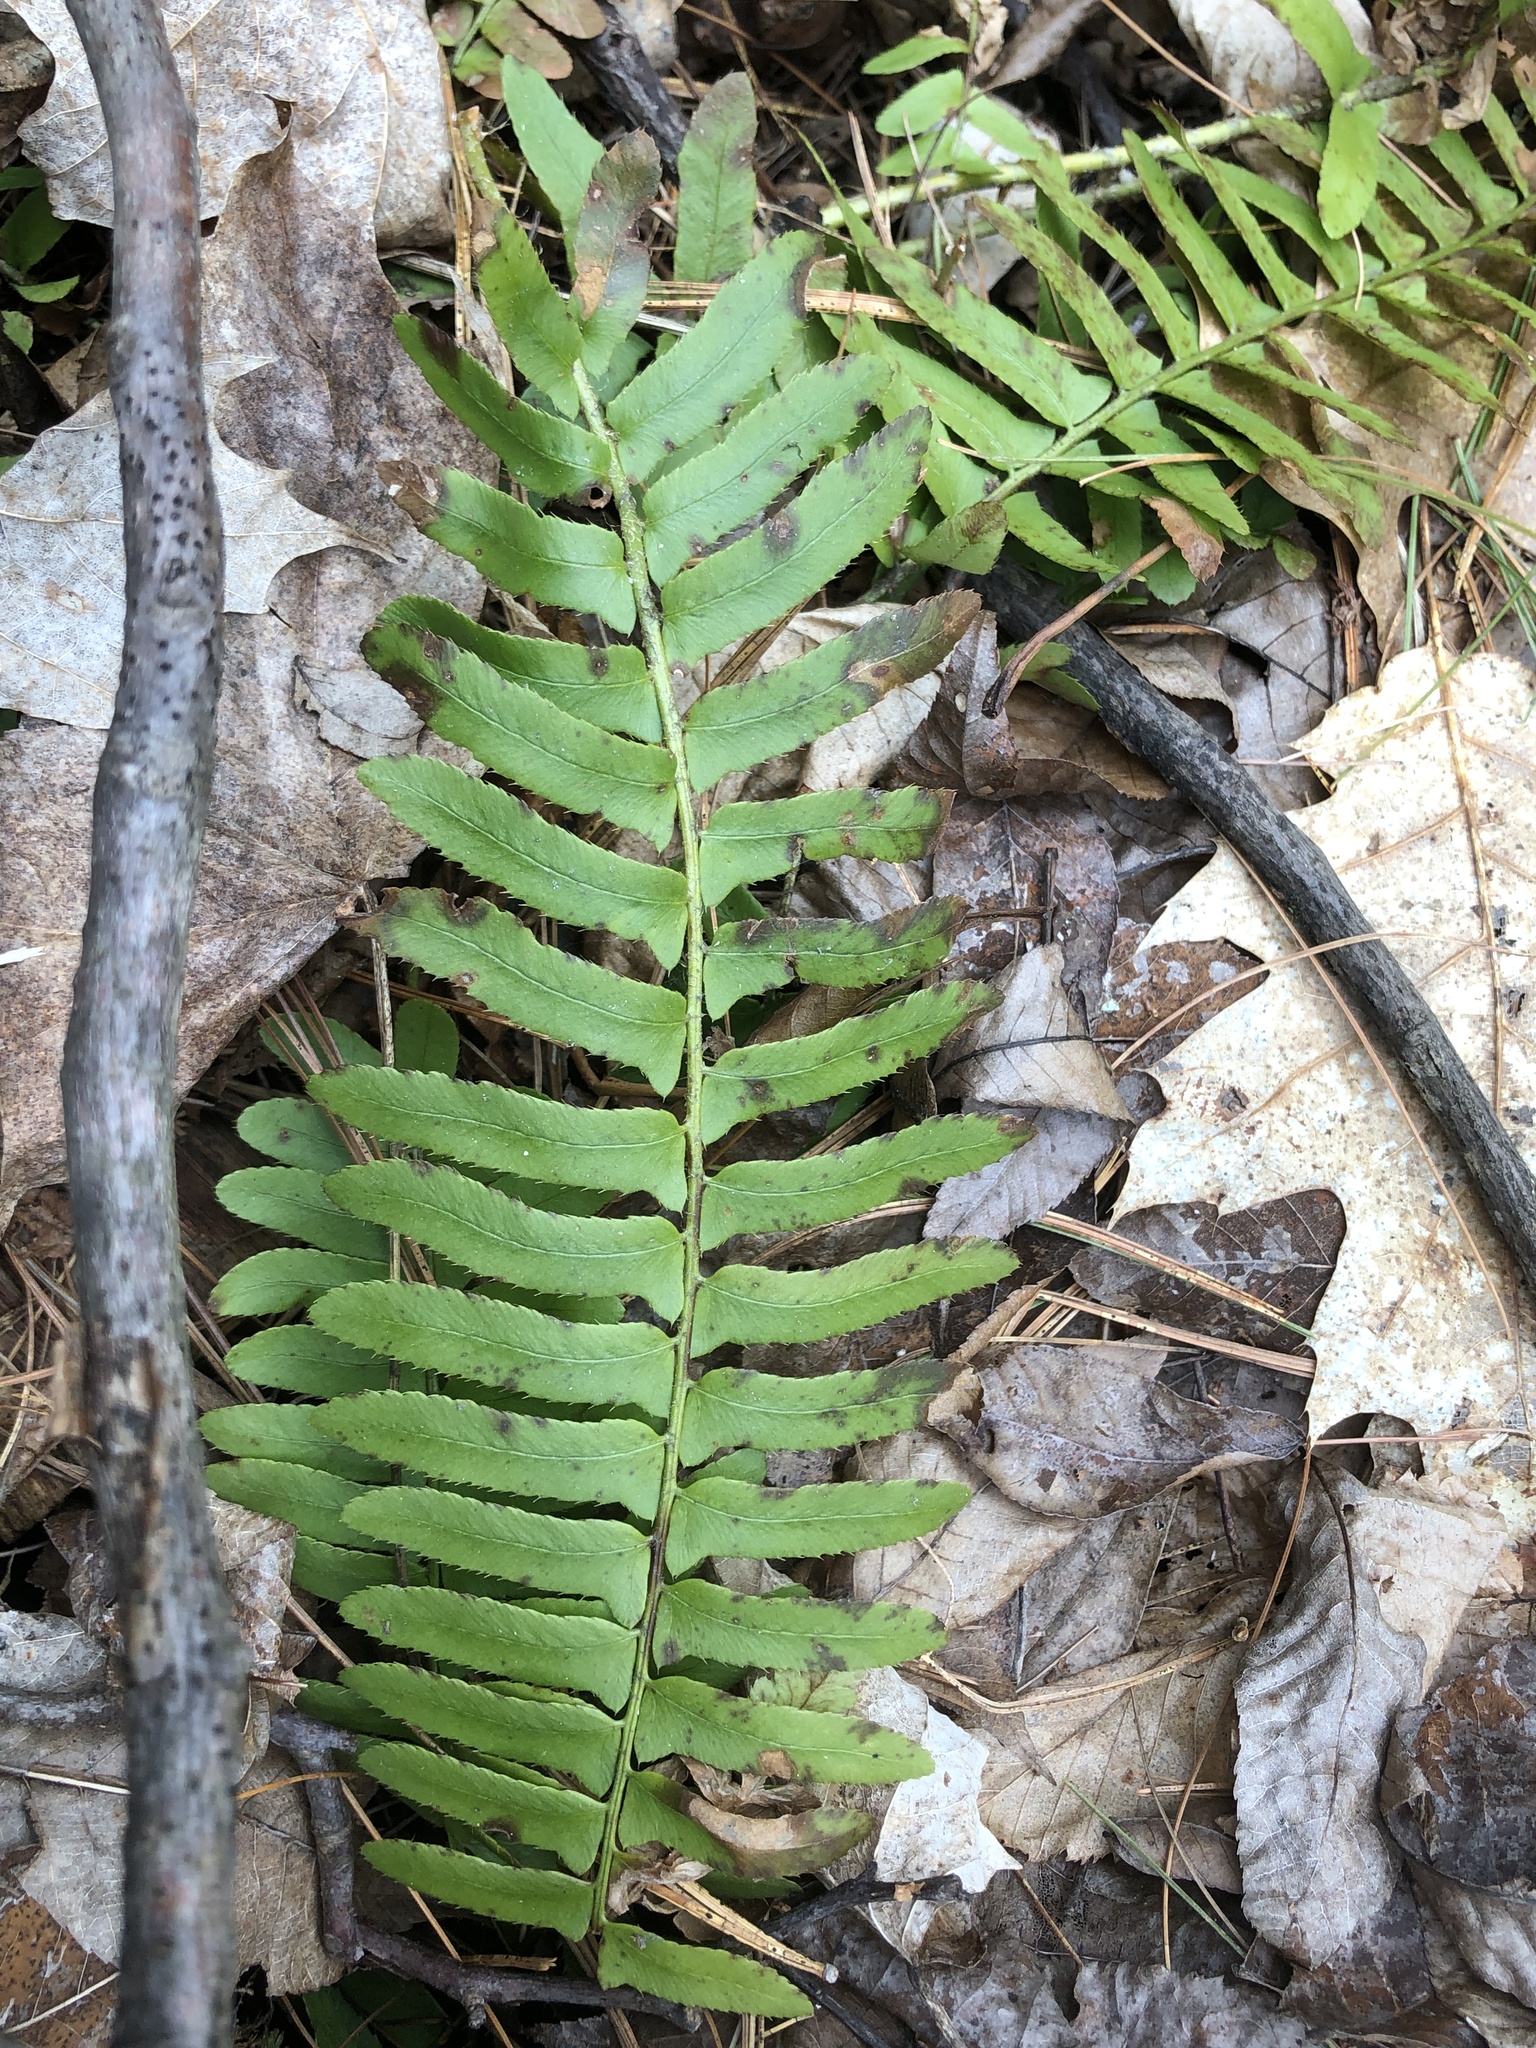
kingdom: Plantae
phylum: Tracheophyta
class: Polypodiopsida
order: Polypodiales
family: Dryopteridaceae
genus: Polystichum
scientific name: Polystichum acrostichoides
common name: Christmas fern
